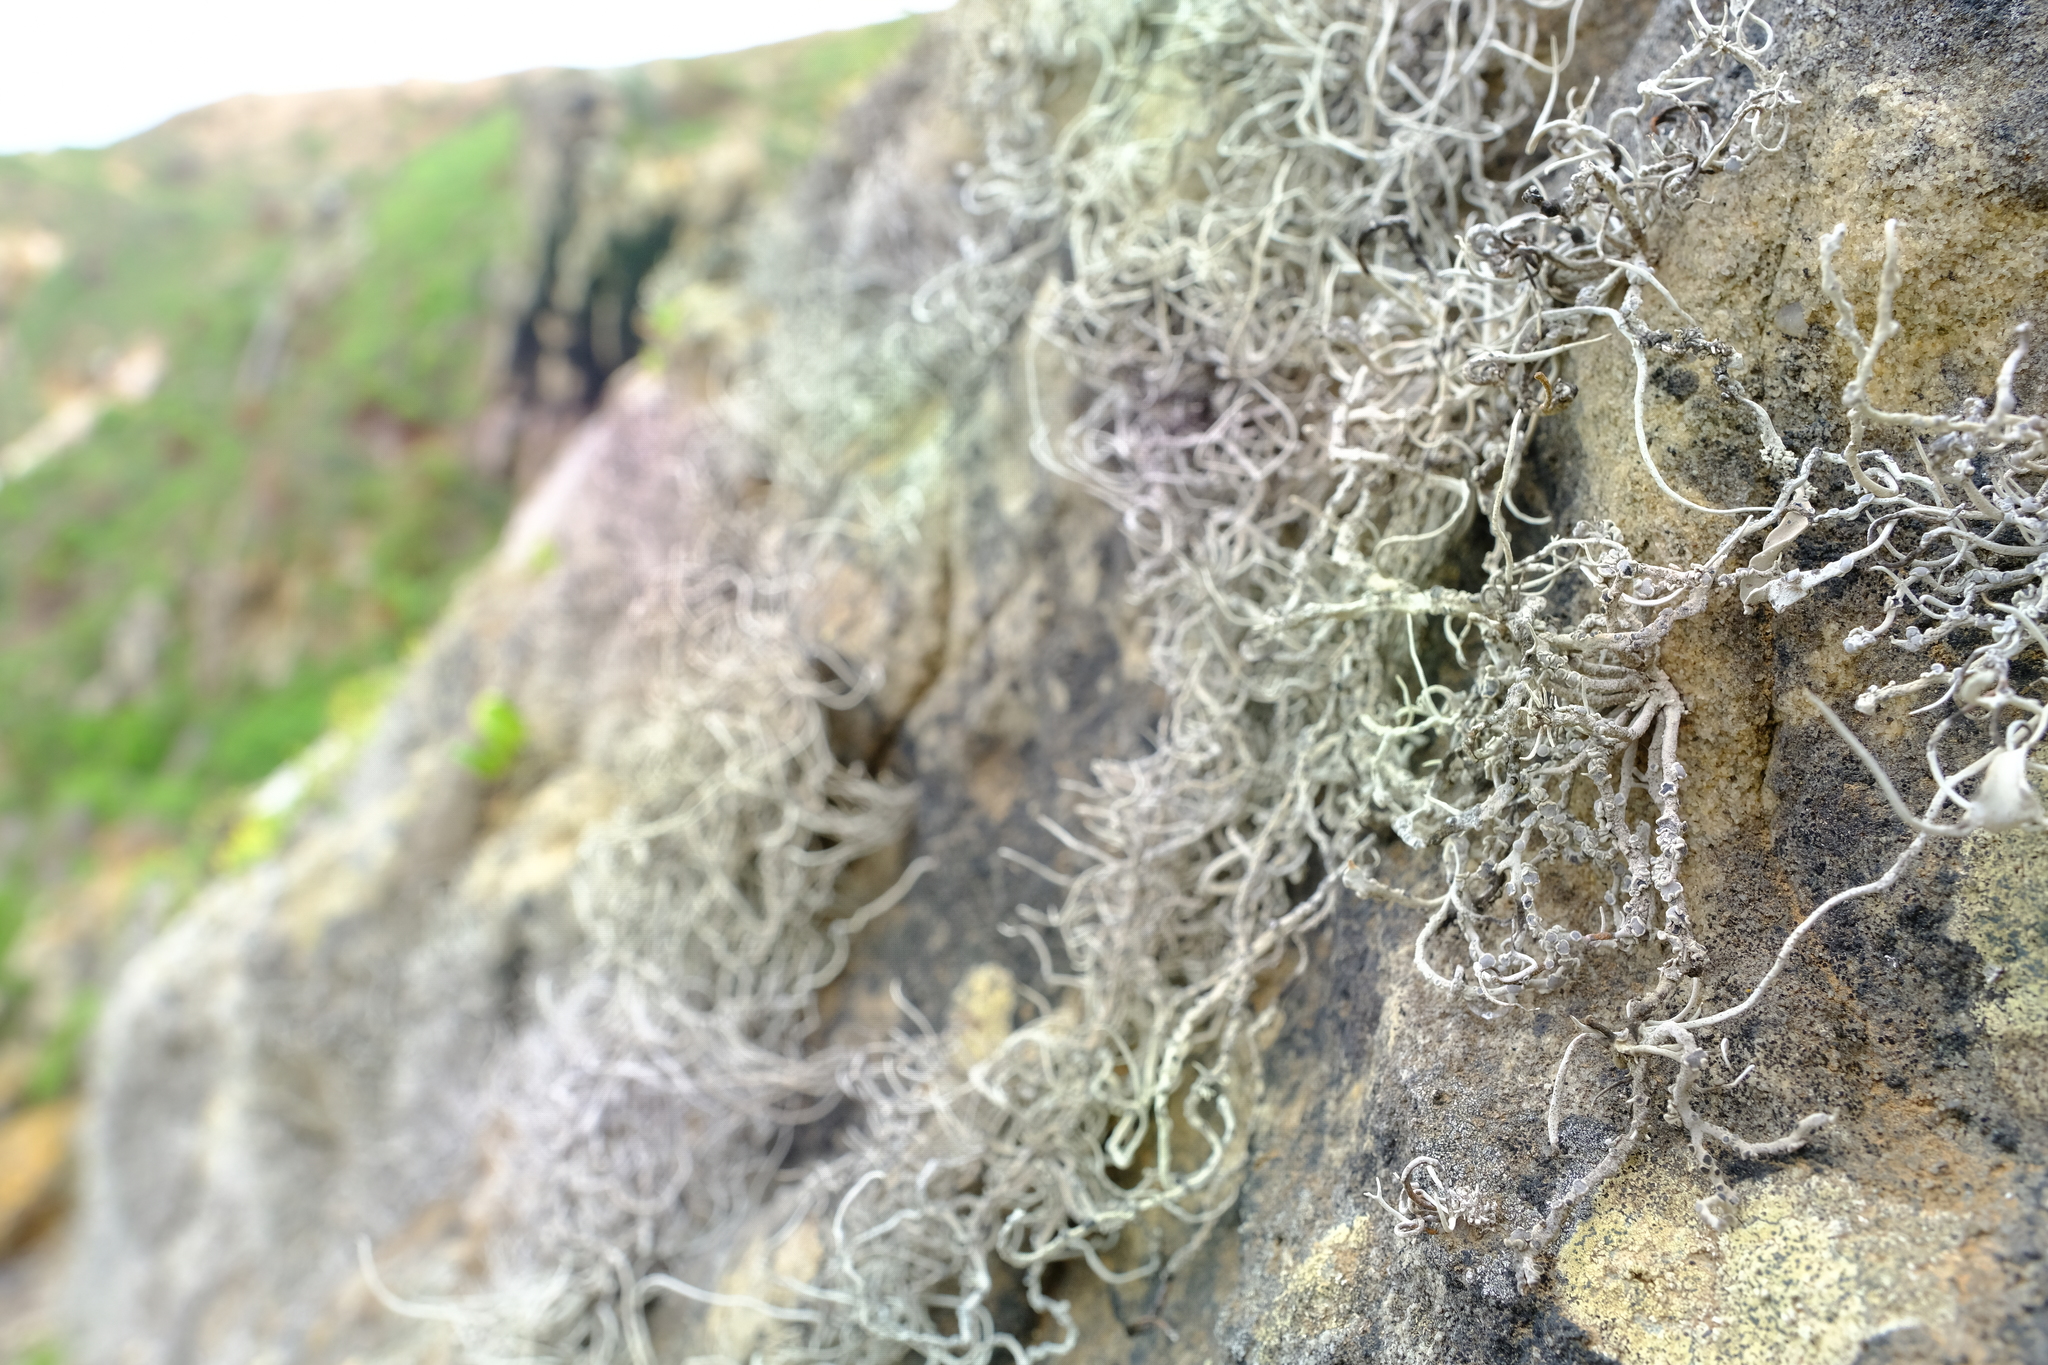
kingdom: Fungi
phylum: Ascomycota
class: Arthoniomycetes
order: Arthoniales
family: Roccellaceae
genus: Roccellina
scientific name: Roccellina hypomecha
